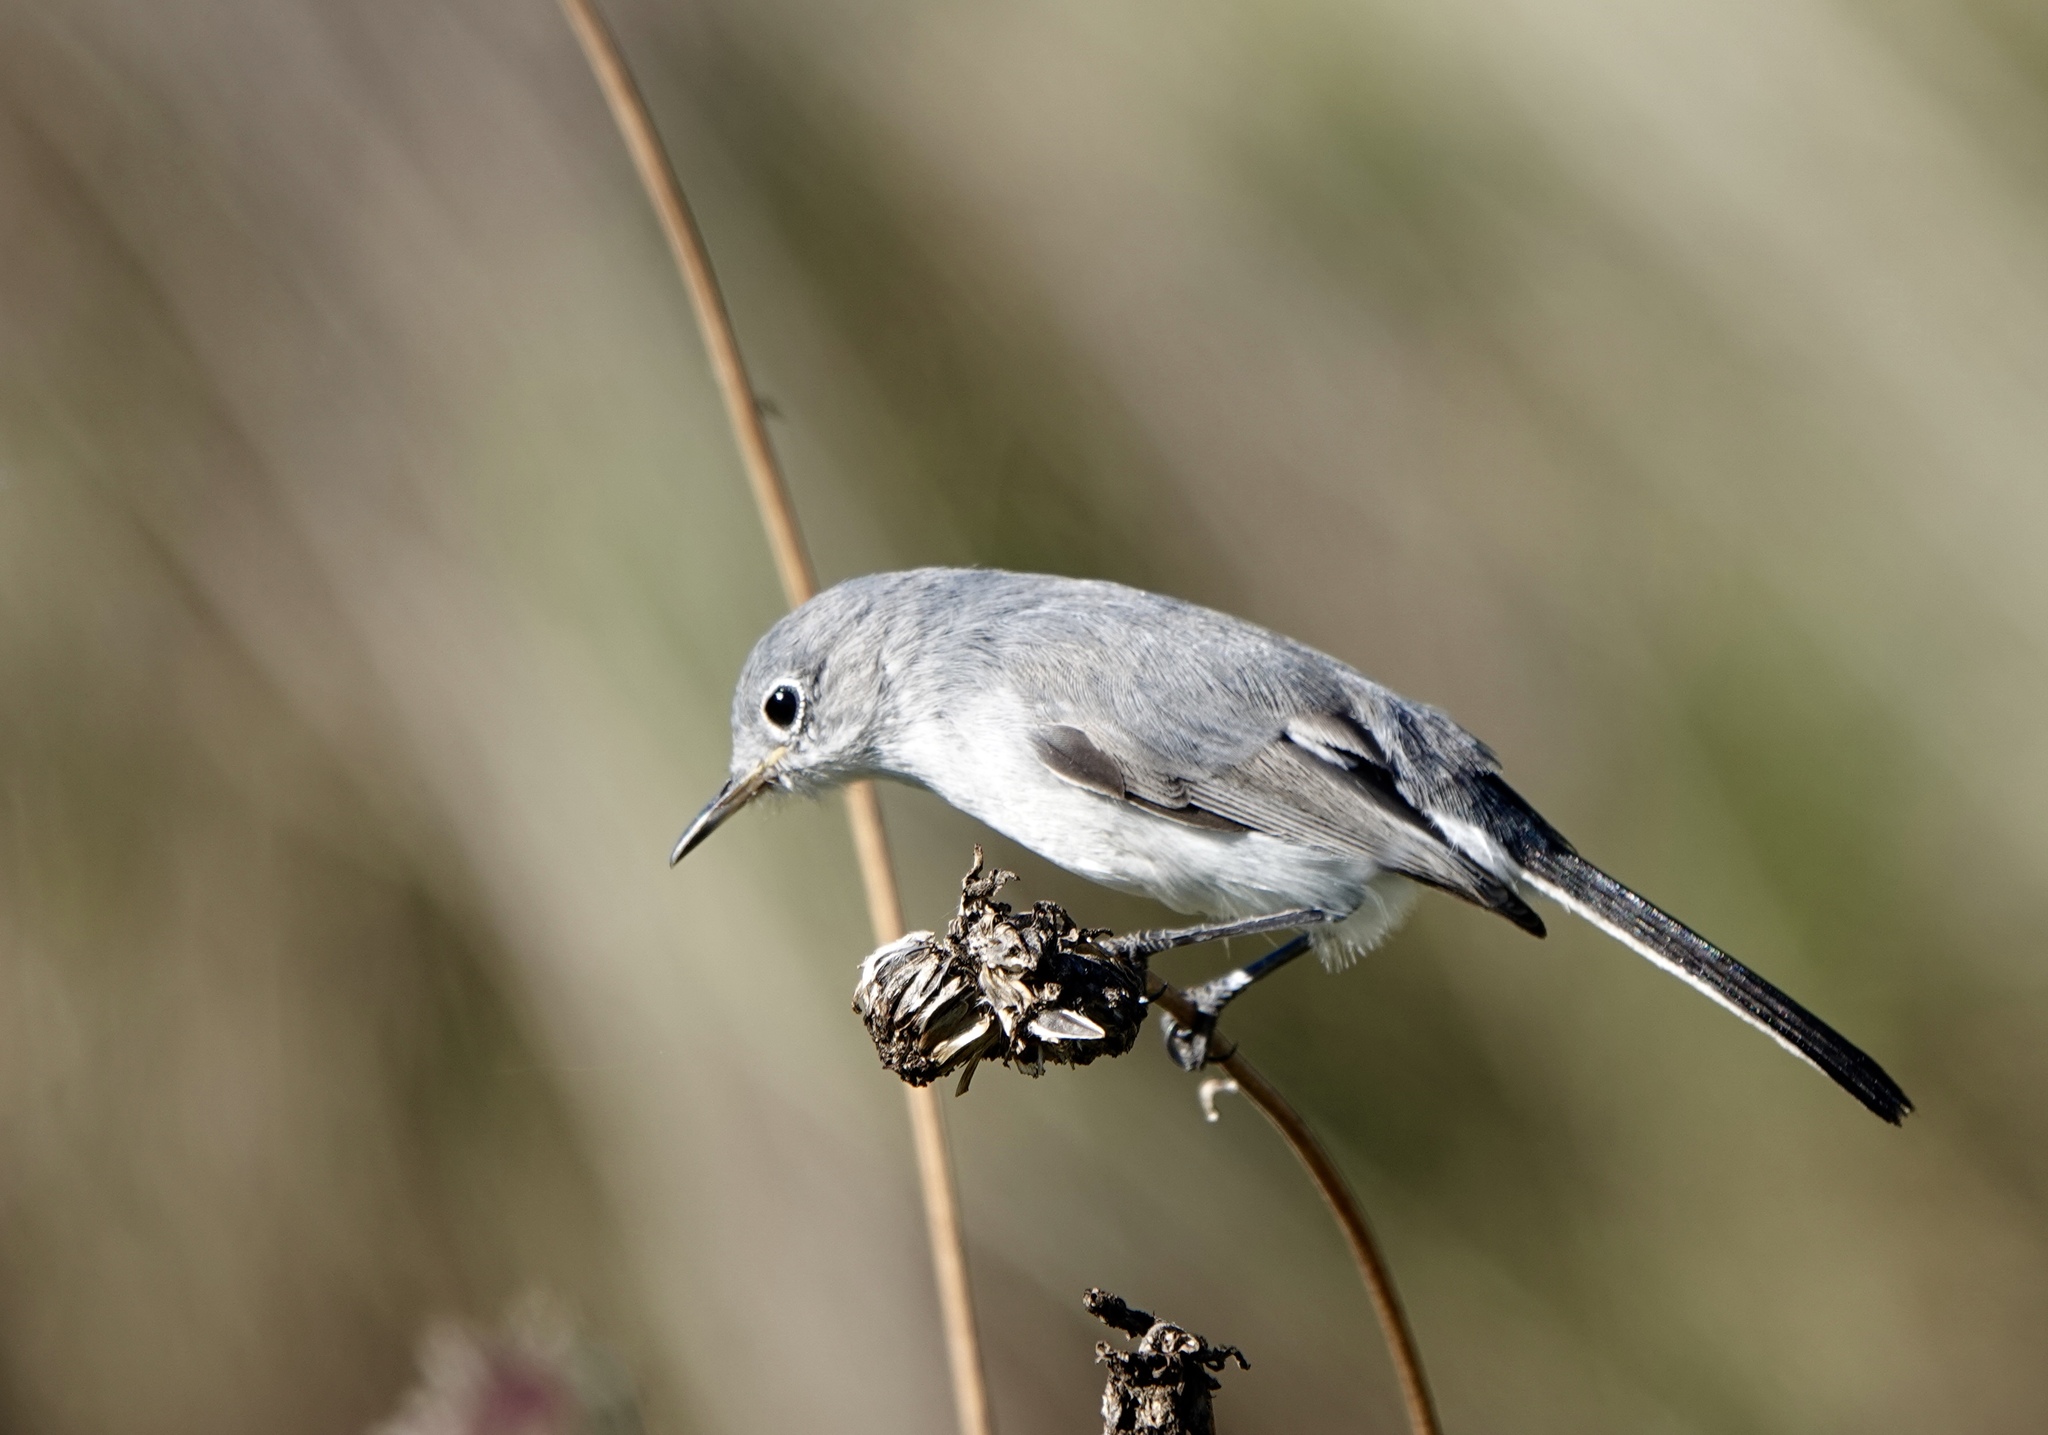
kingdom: Animalia
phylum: Chordata
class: Aves
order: Passeriformes
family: Polioptilidae
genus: Polioptila
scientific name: Polioptila caerulea
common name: Blue-gray gnatcatcher
